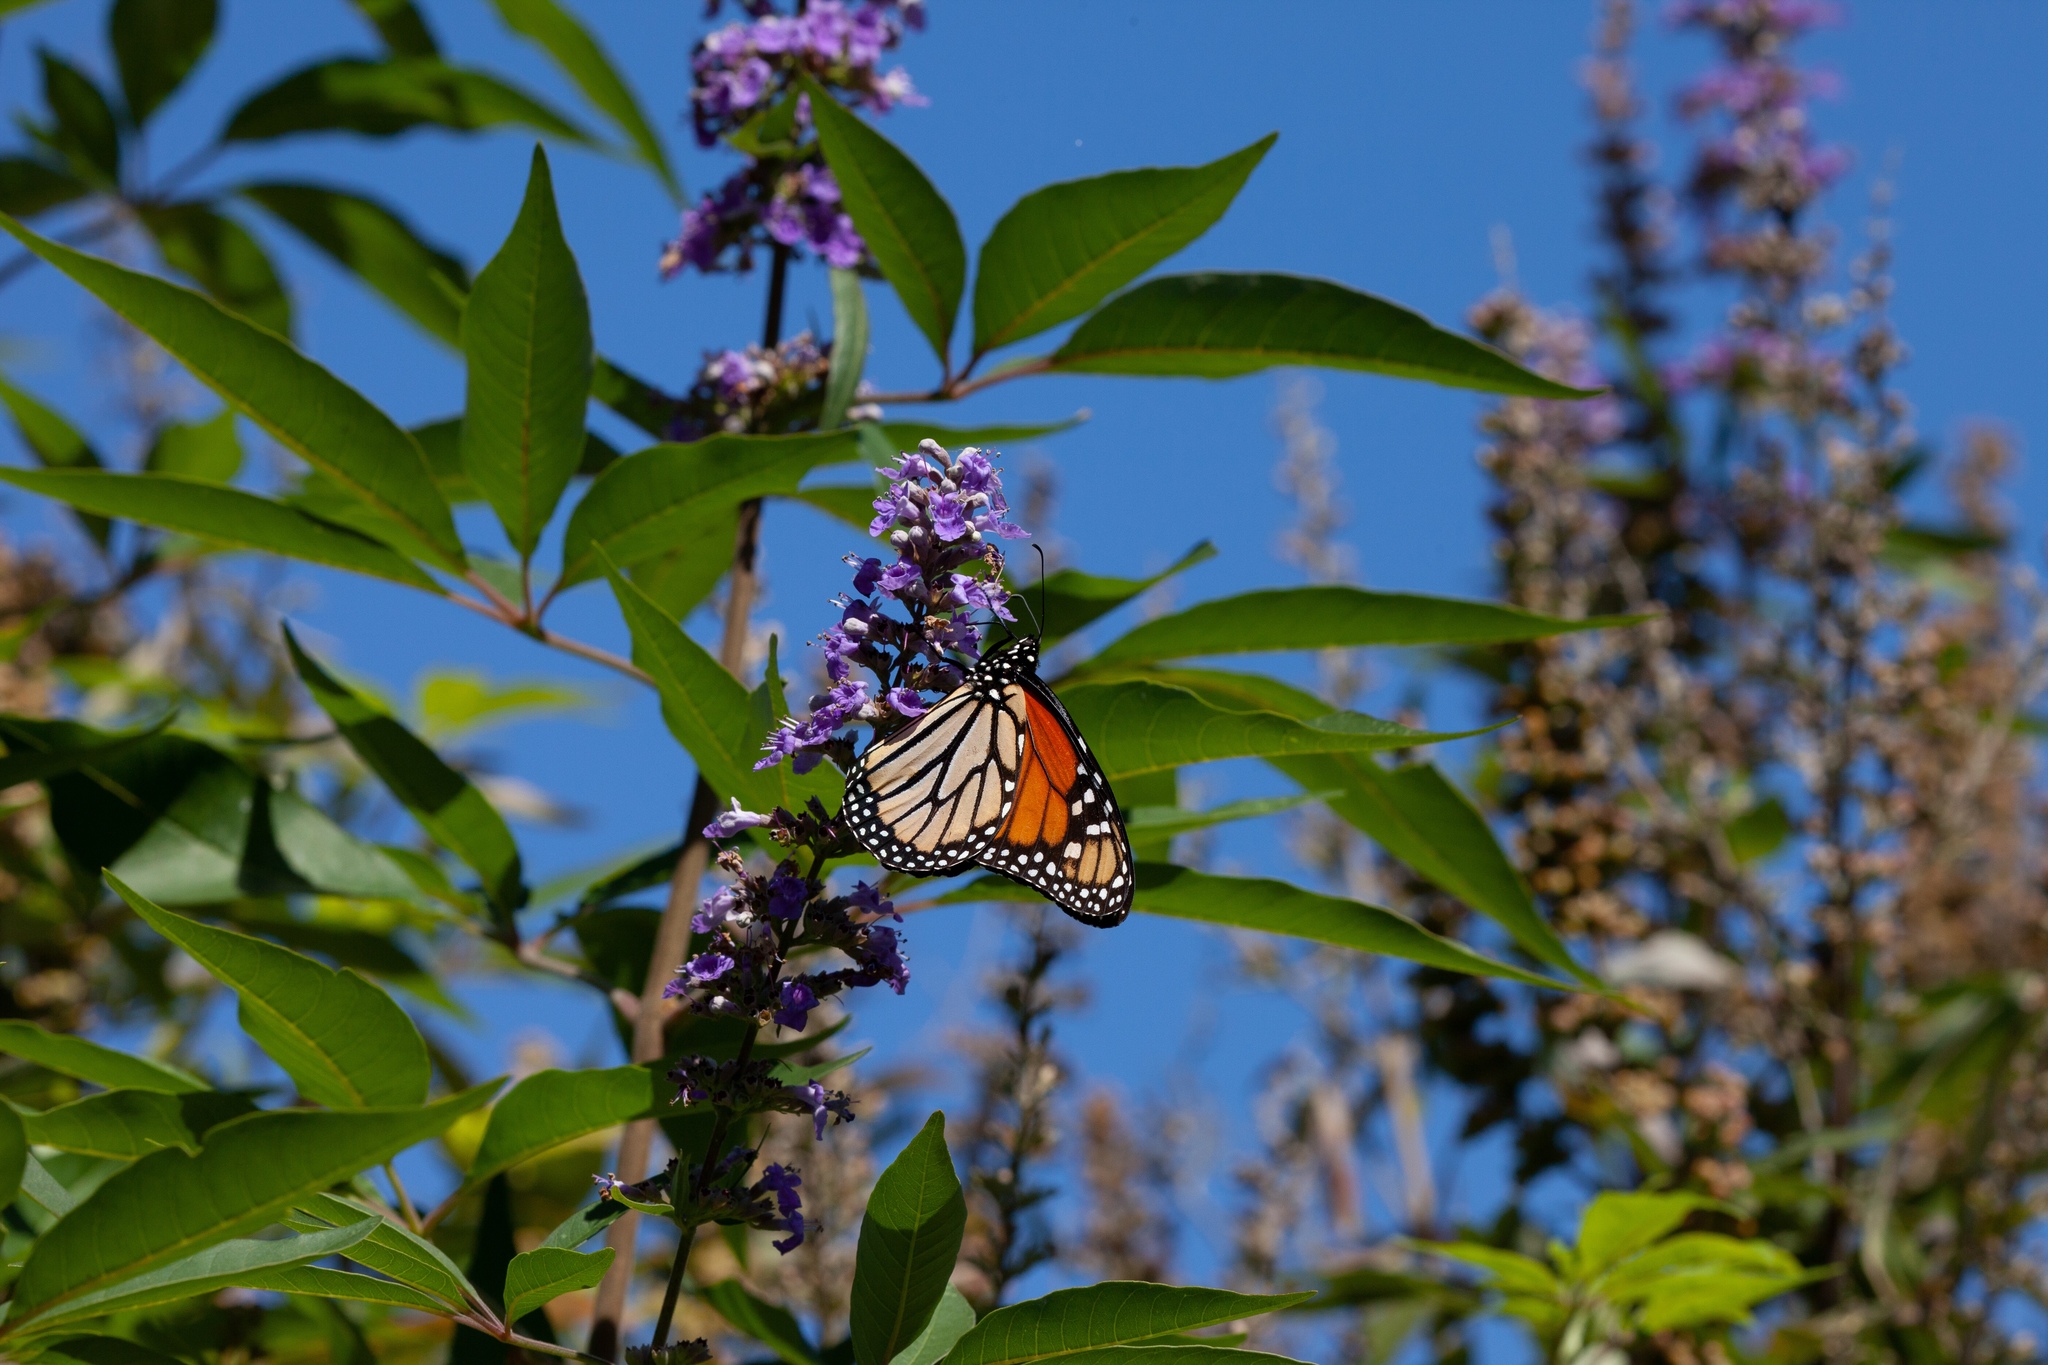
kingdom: Animalia
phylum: Arthropoda
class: Insecta
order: Lepidoptera
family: Nymphalidae
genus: Danaus
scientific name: Danaus plexippus
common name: Monarch
